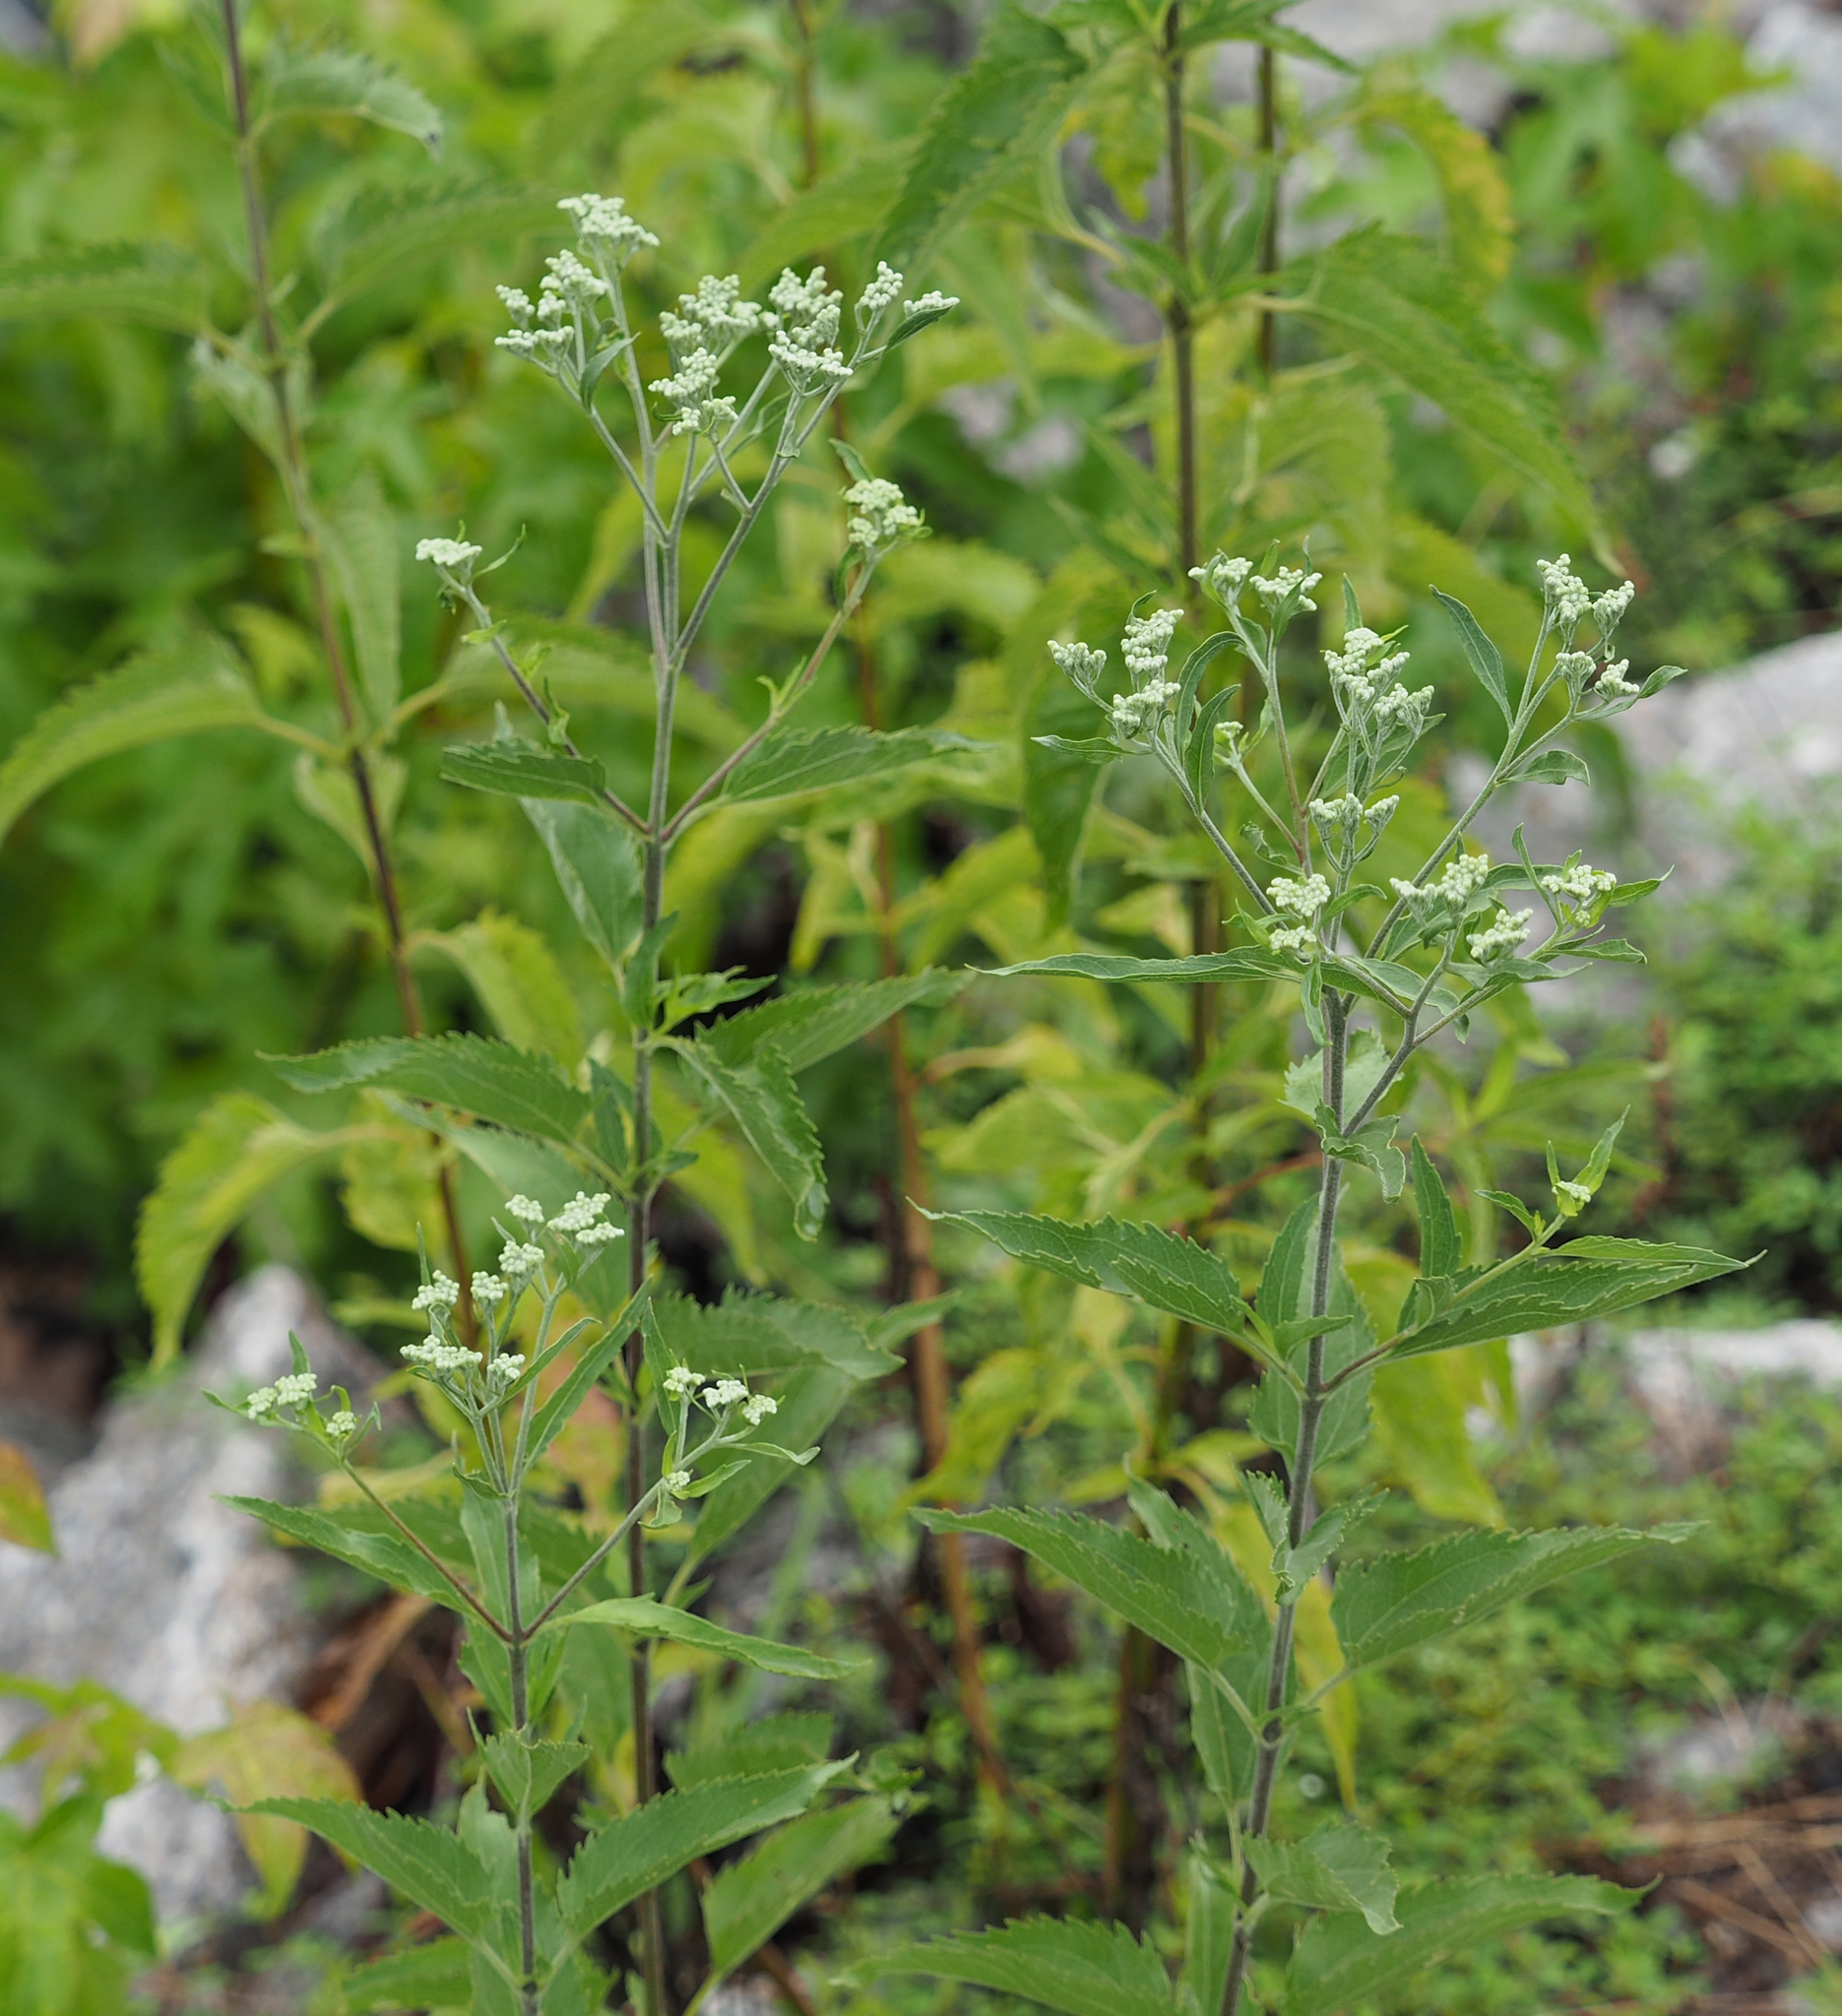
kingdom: Plantae
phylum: Tracheophyta
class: Magnoliopsida
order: Asterales
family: Asteraceae
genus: Eupatorium
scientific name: Eupatorium serotinum
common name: Late boneset
